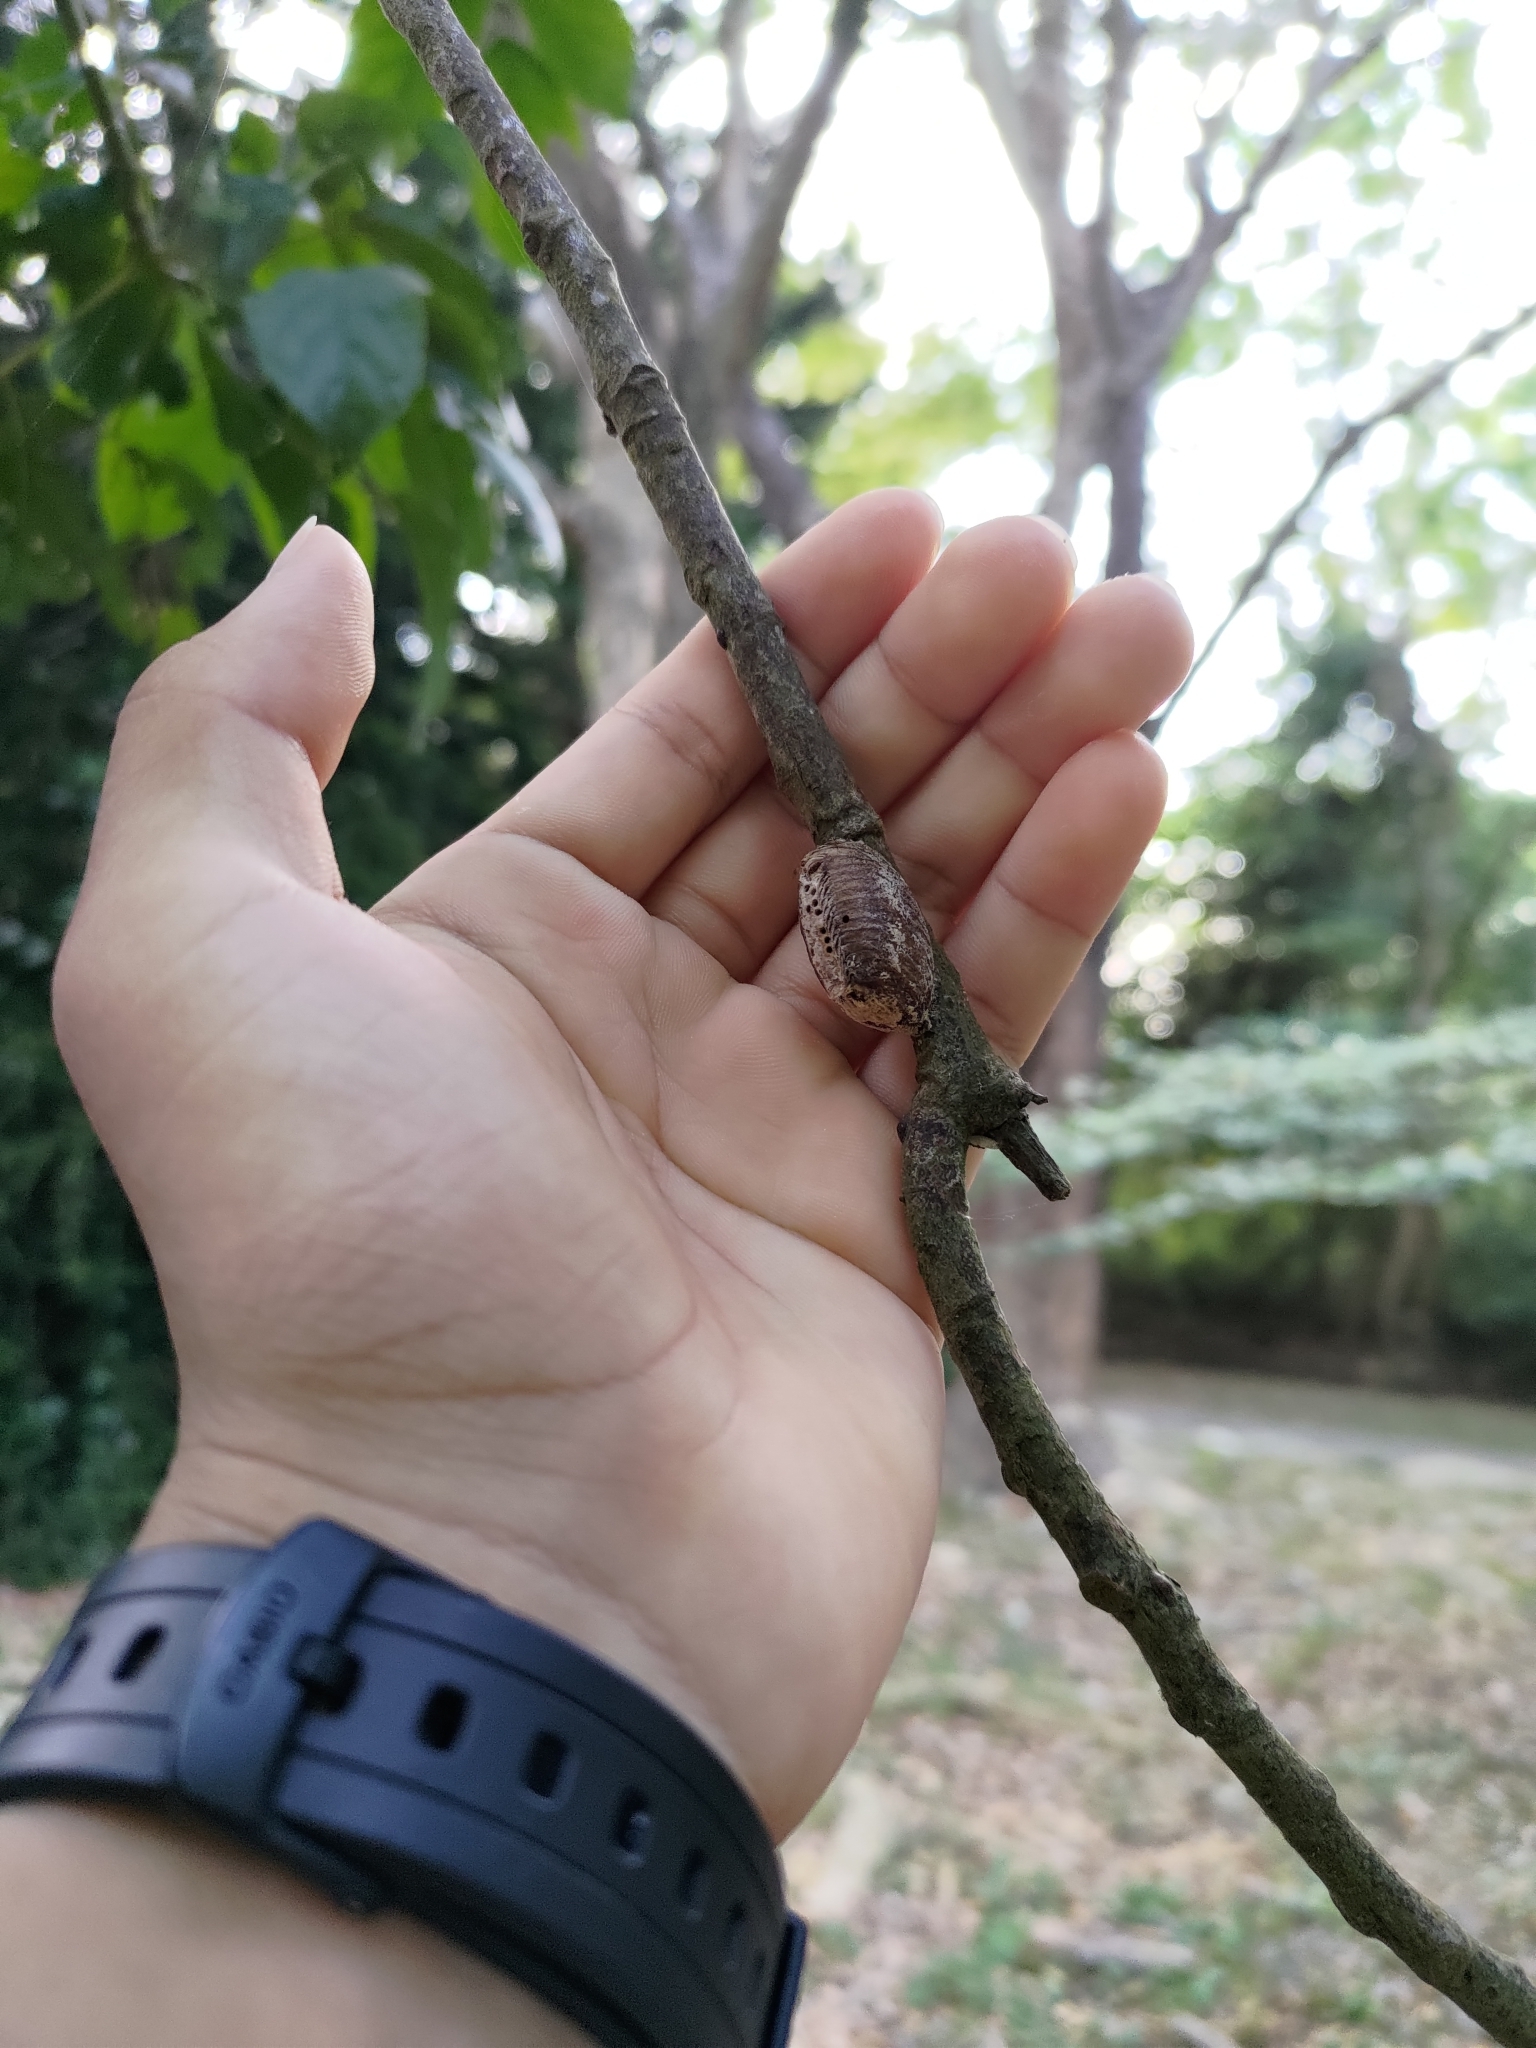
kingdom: Animalia
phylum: Arthropoda
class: Insecta
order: Mantodea
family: Mantidae
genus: Hierodula
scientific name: Hierodula patellifera
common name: Asian mantis
